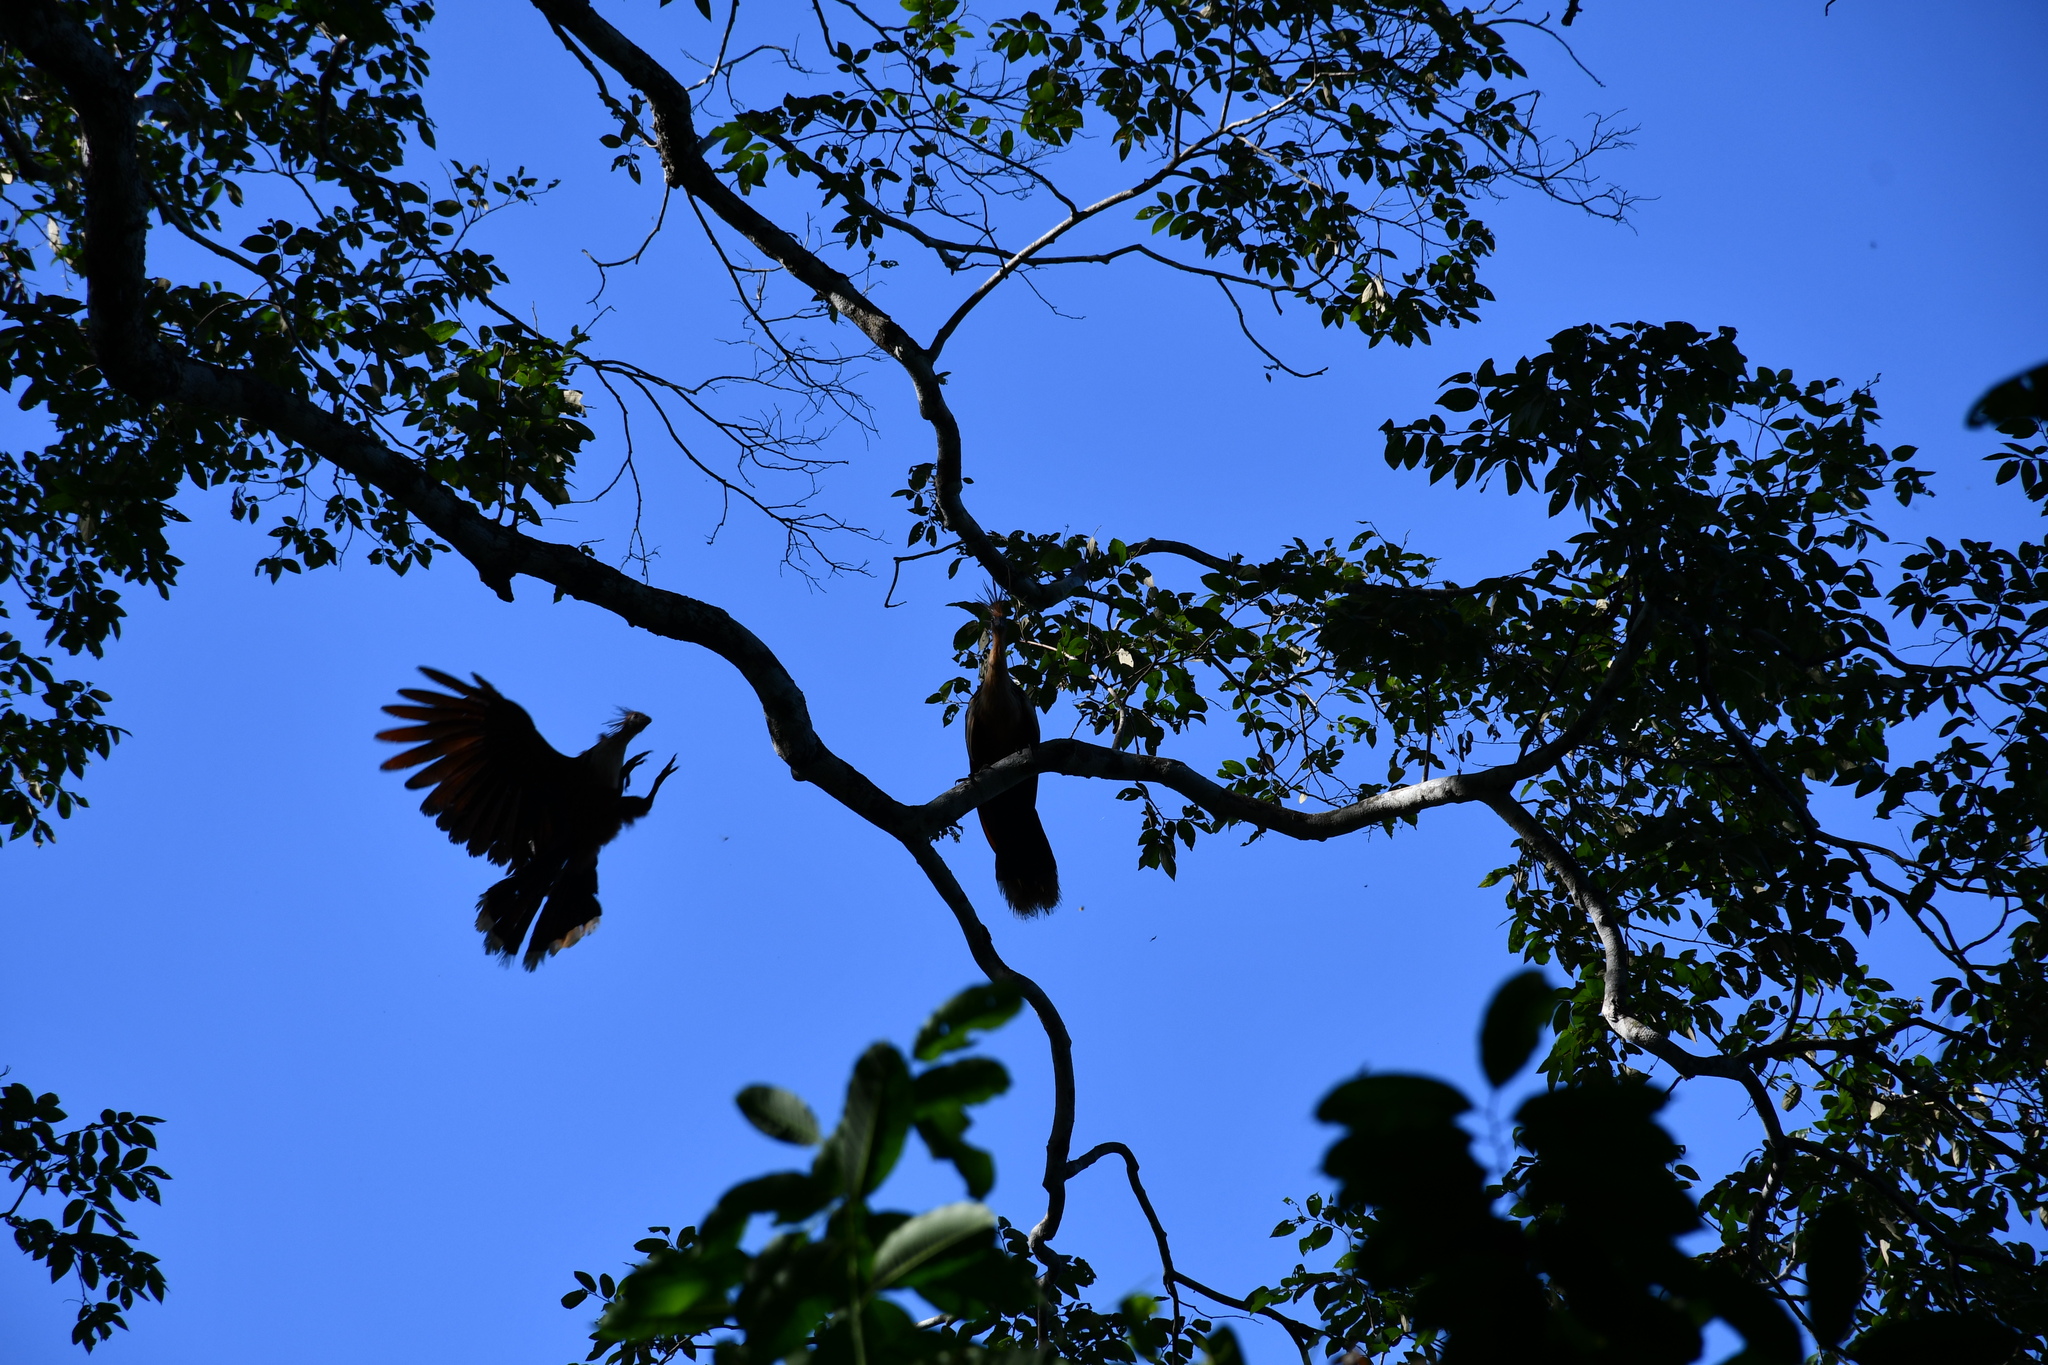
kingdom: Animalia
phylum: Chordata
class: Aves
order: Opisthocomiformes
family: Opisthocomidae
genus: Opisthocomus
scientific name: Opisthocomus hoazin
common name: Hoatzin
